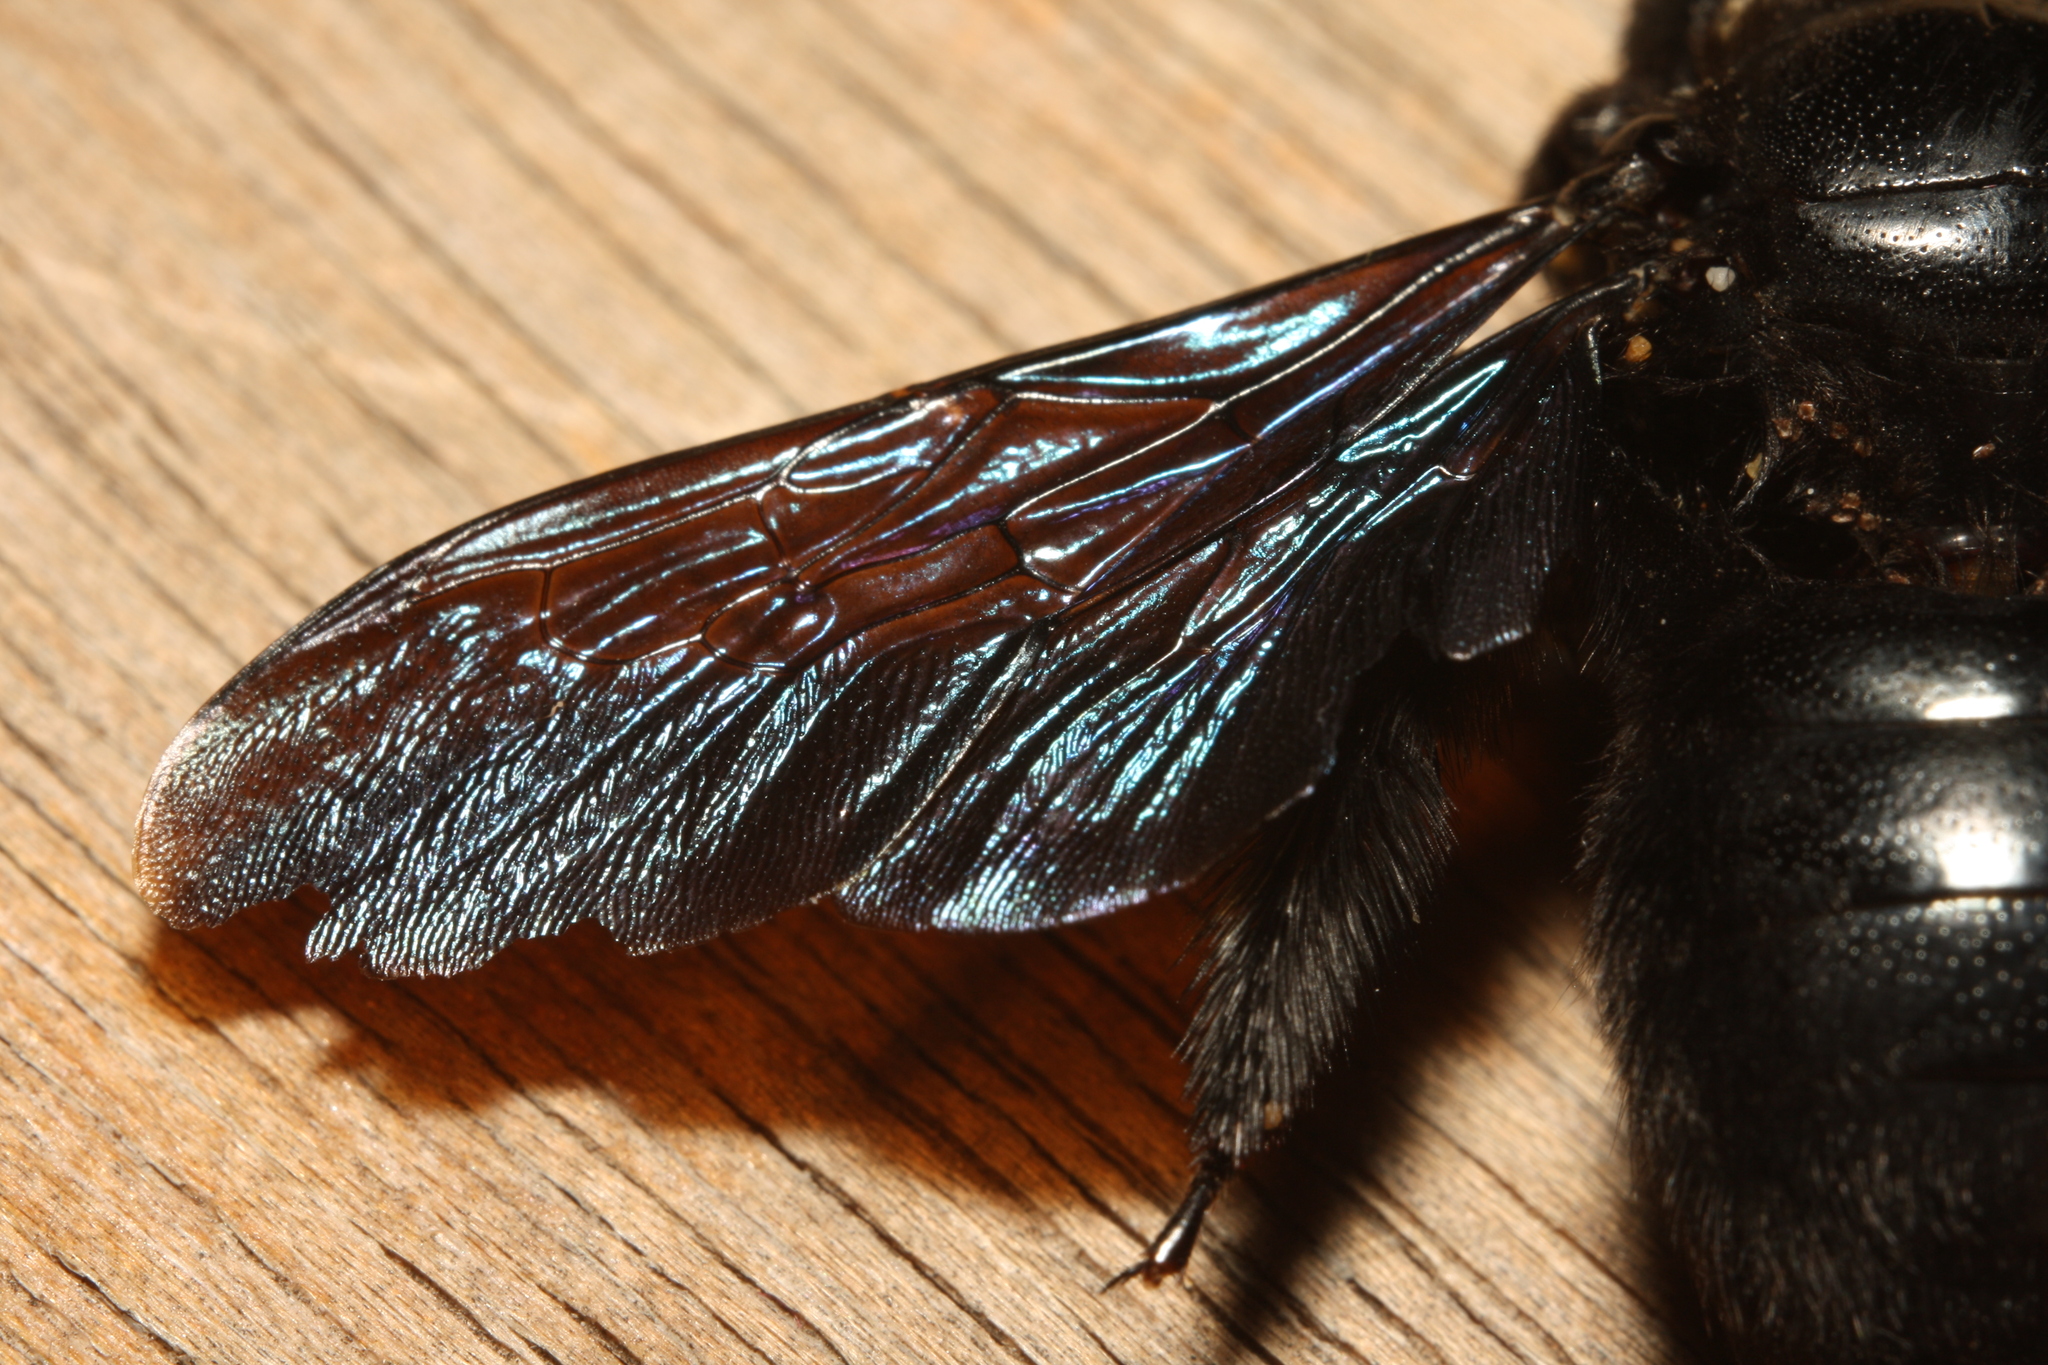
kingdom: Animalia
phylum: Arthropoda
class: Insecta
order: Hymenoptera
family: Apidae
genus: Xylocopa
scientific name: Xylocopa violacea
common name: Violet carpenter bee
